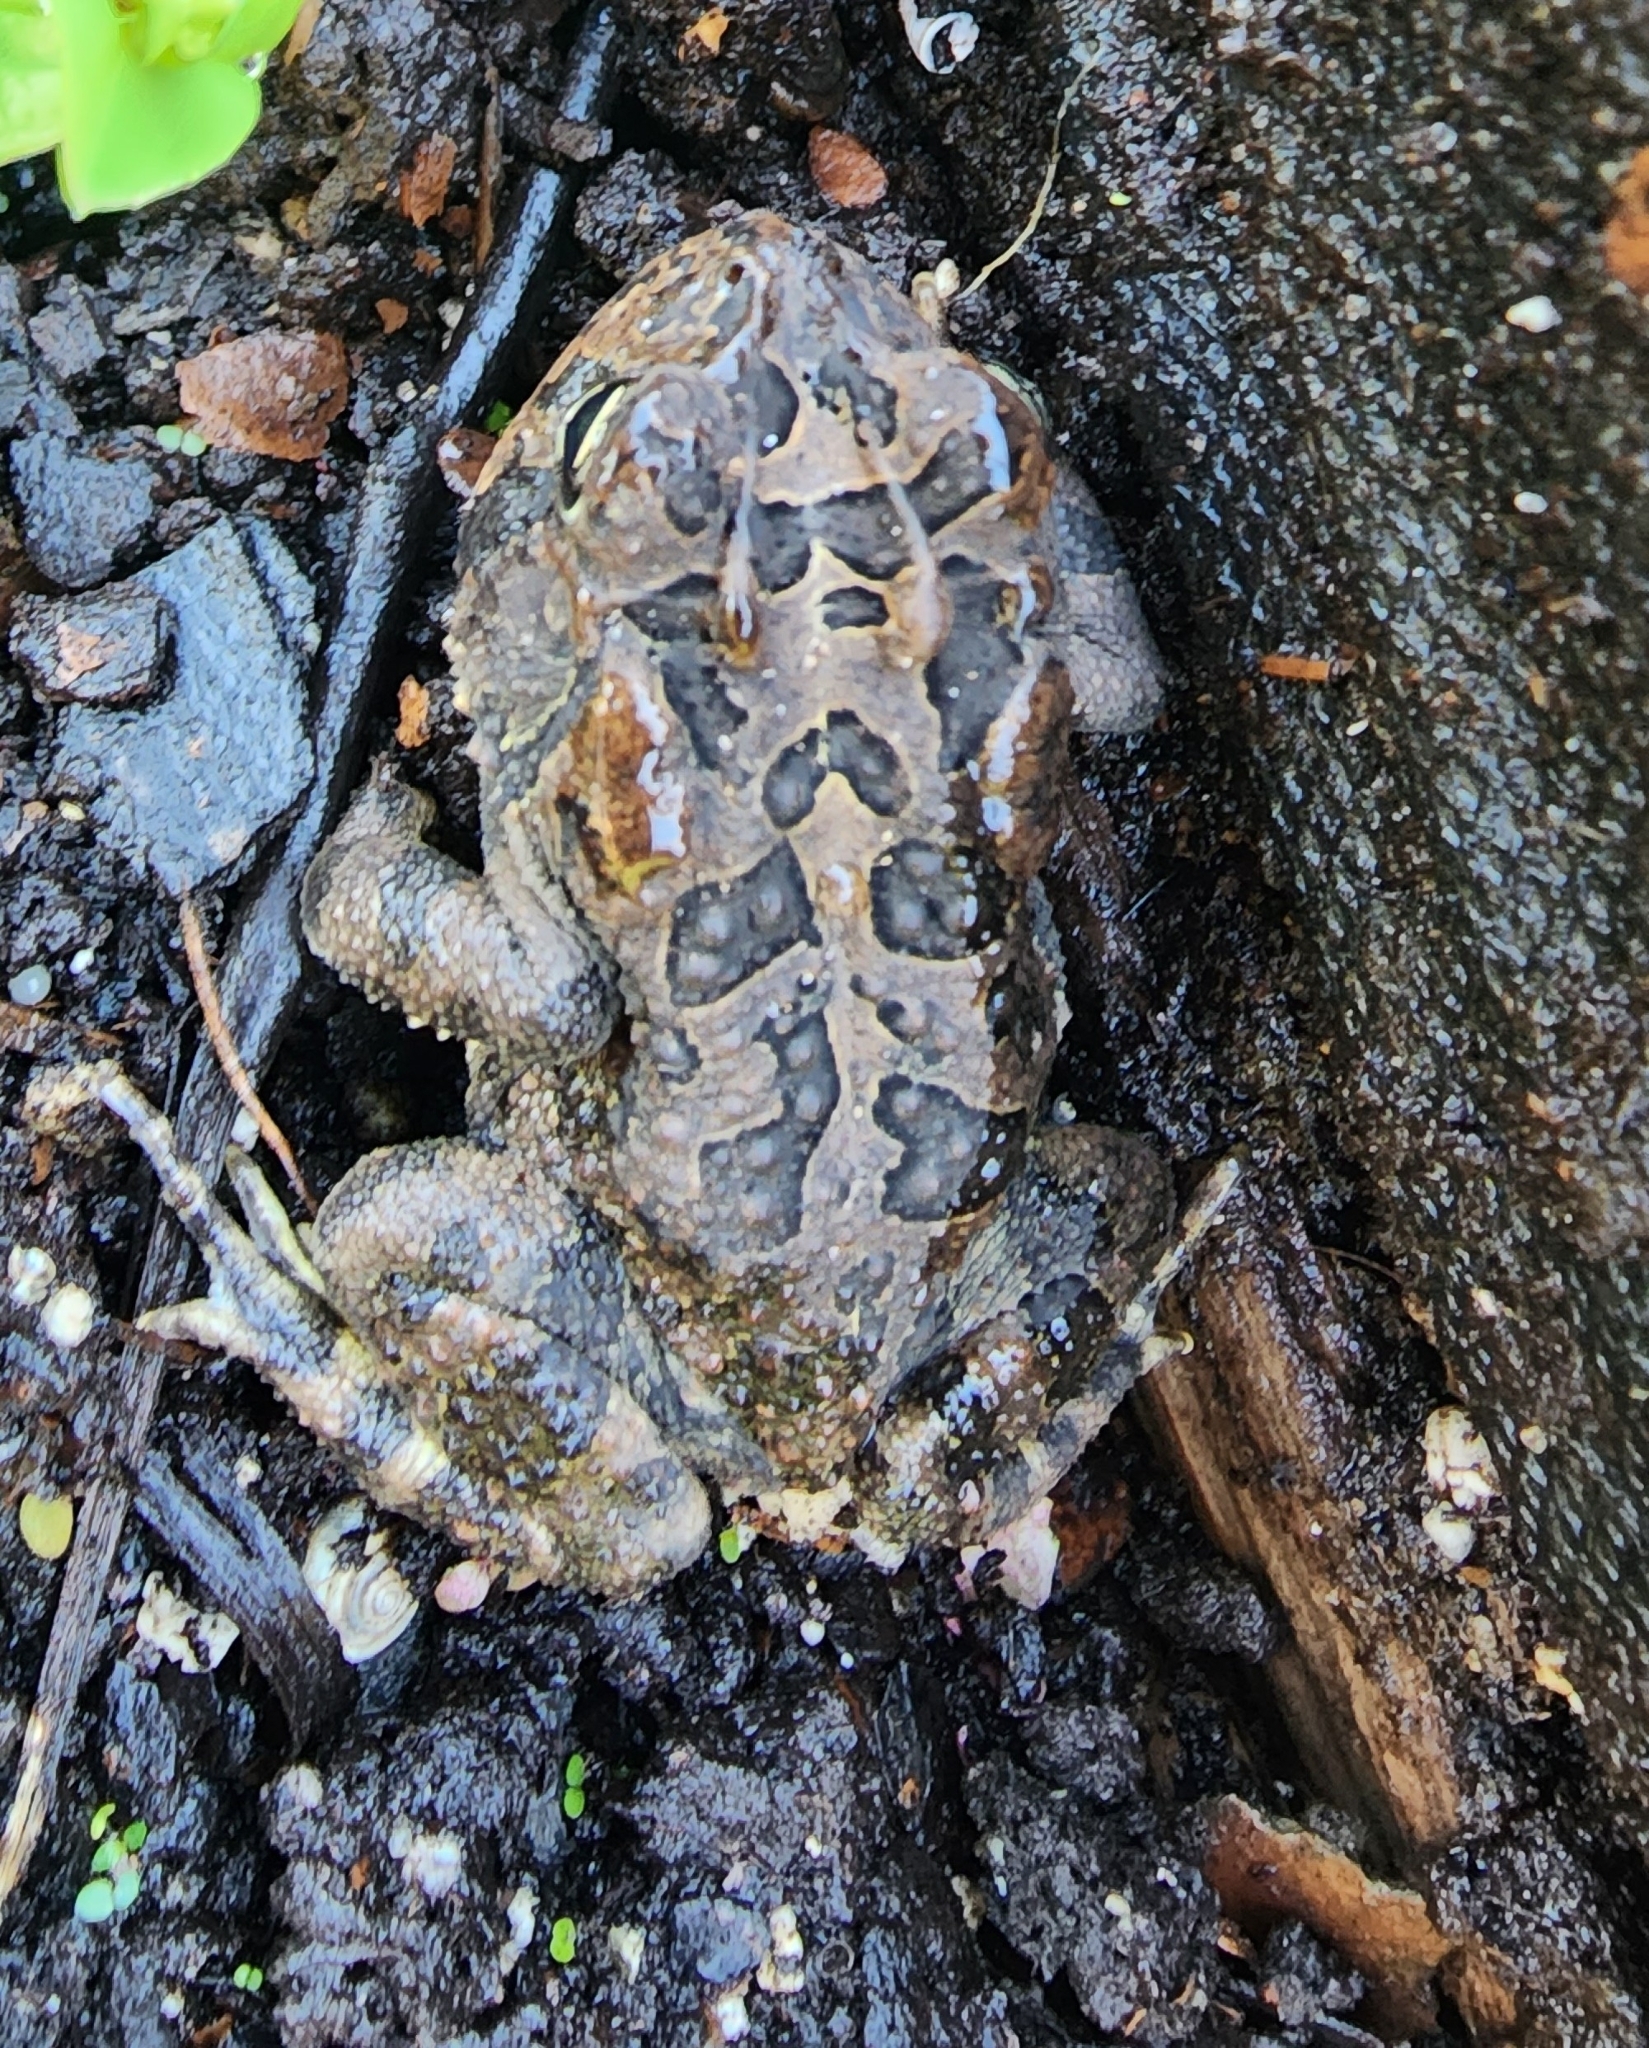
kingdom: Animalia
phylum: Chordata
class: Amphibia
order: Anura
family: Bufonidae
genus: Anaxyrus
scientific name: Anaxyrus terrestris
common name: Southern toad
